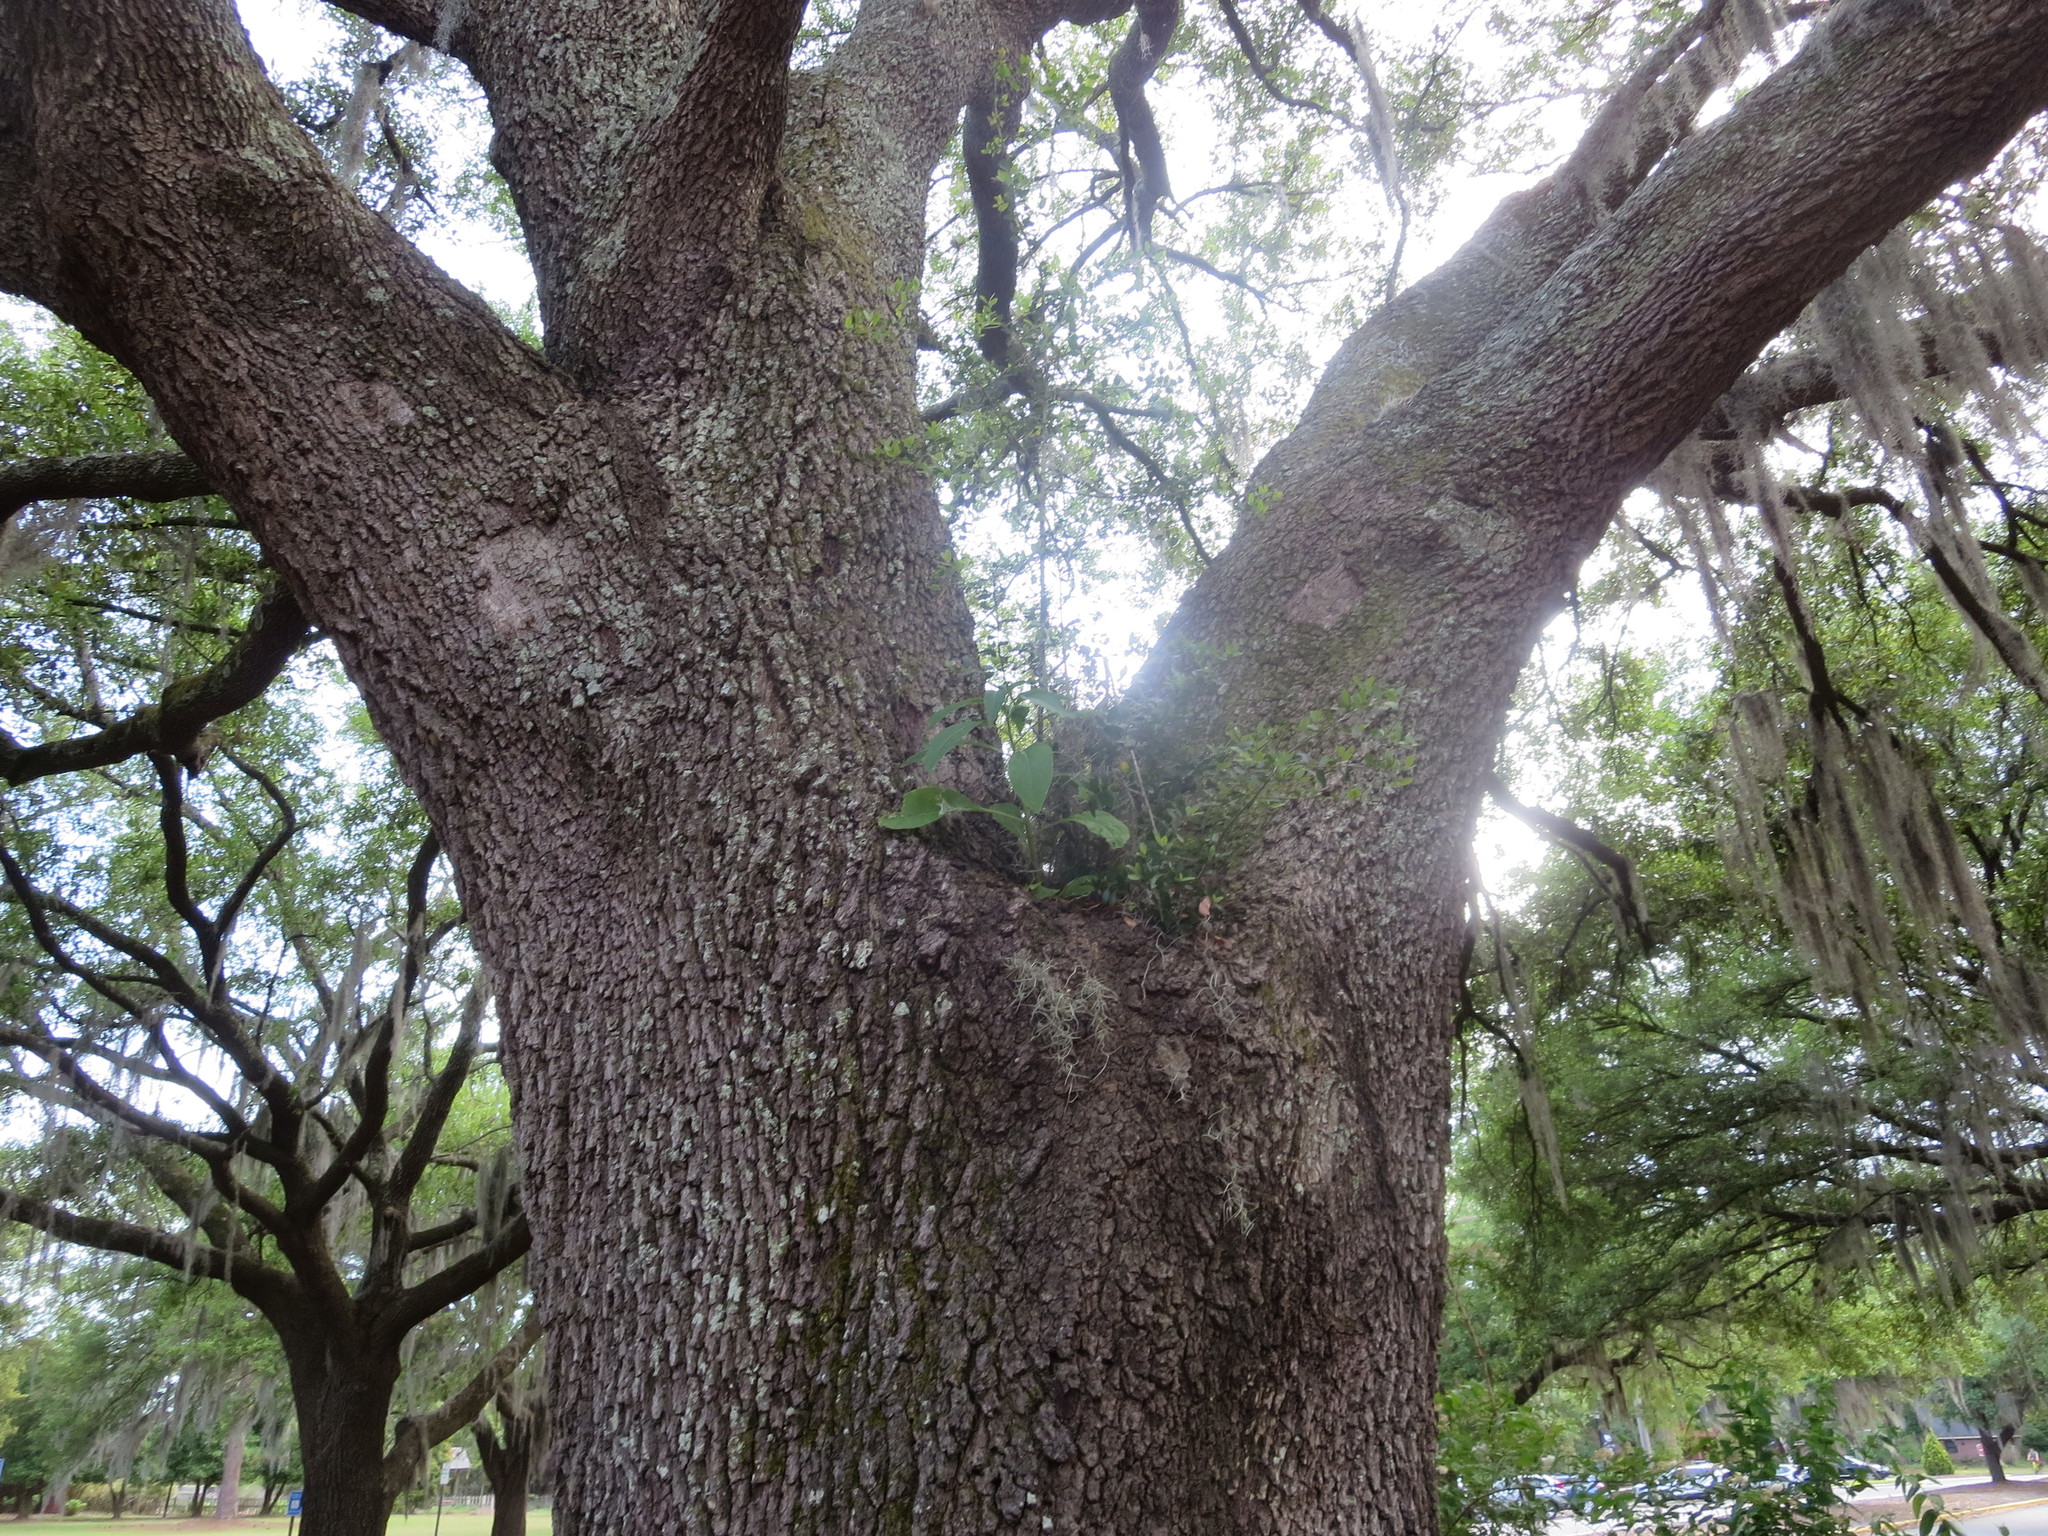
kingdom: Plantae
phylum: Tracheophyta
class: Magnoliopsida
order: Caryophyllales
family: Phytolaccaceae
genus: Phytolacca
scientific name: Phytolacca americana
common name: American pokeweed
